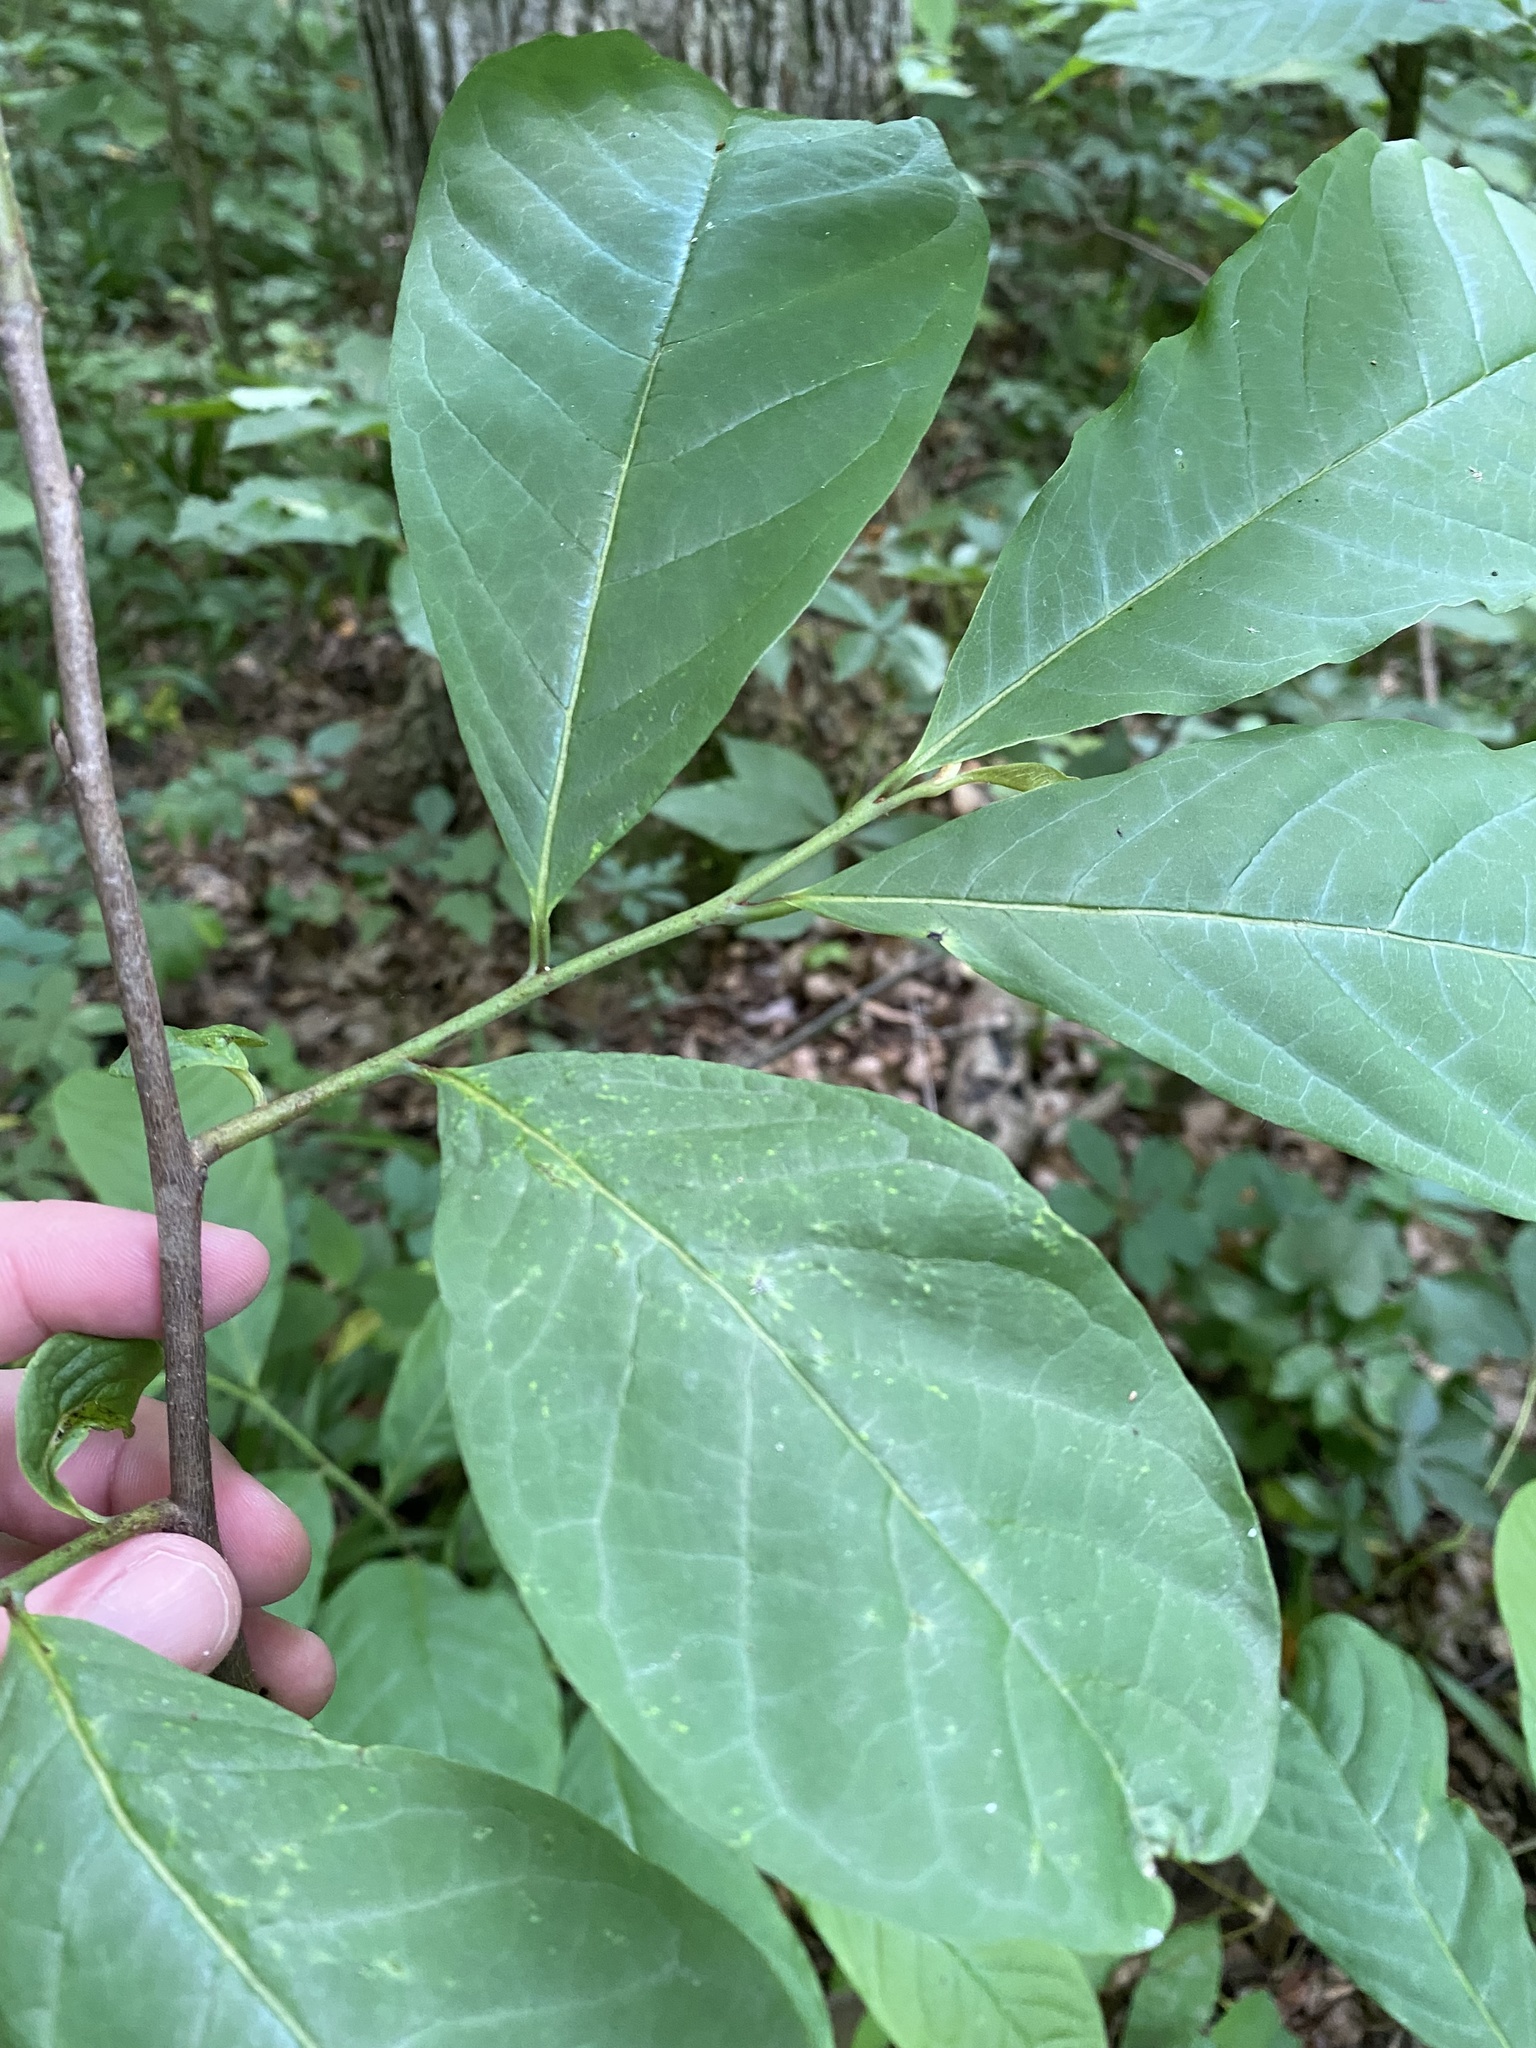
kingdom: Plantae
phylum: Tracheophyta
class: Magnoliopsida
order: Magnoliales
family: Annonaceae
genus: Asimina
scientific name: Asimina triloba
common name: Dog-banana
